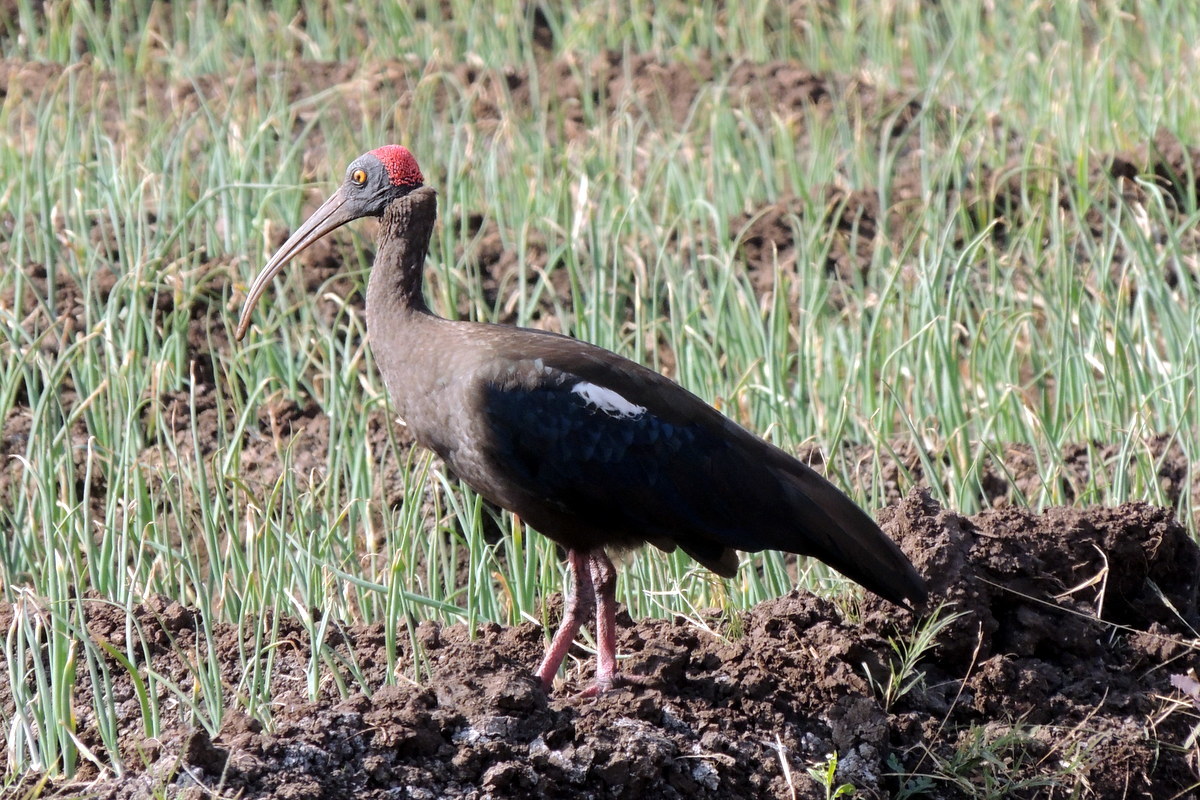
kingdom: Animalia
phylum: Chordata
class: Aves
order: Pelecaniformes
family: Threskiornithidae
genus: Pseudibis
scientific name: Pseudibis papillosa
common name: Red-naped ibis
